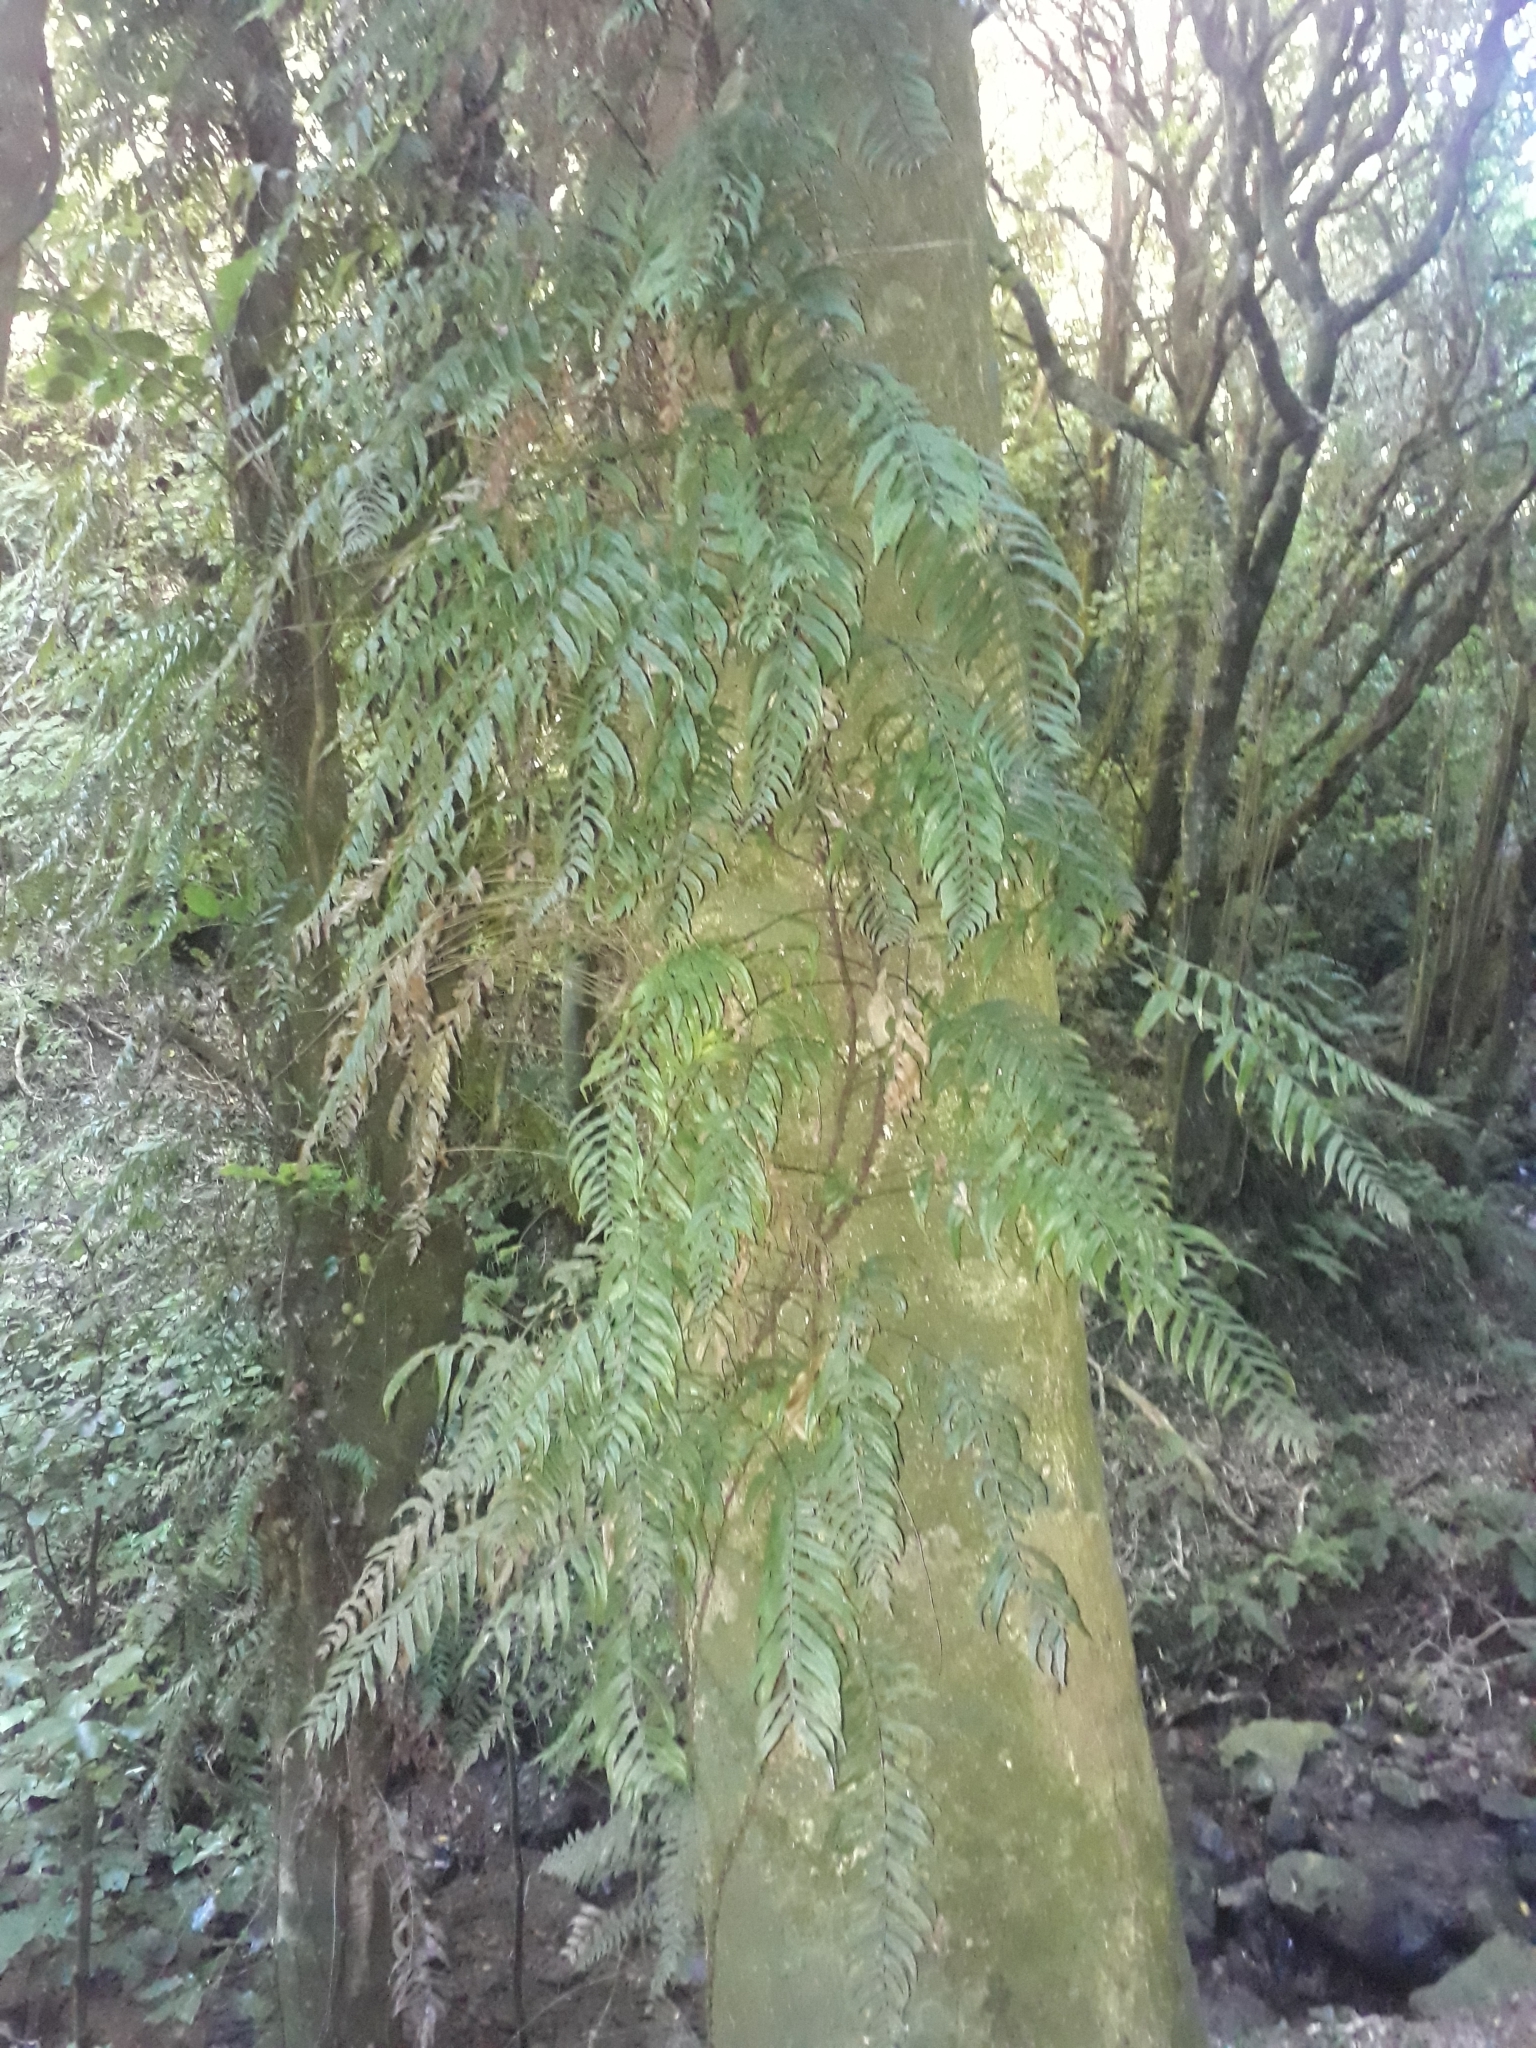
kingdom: Plantae
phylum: Tracheophyta
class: Polypodiopsida
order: Polypodiales
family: Blechnaceae
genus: Icarus
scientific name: Icarus filiformis
